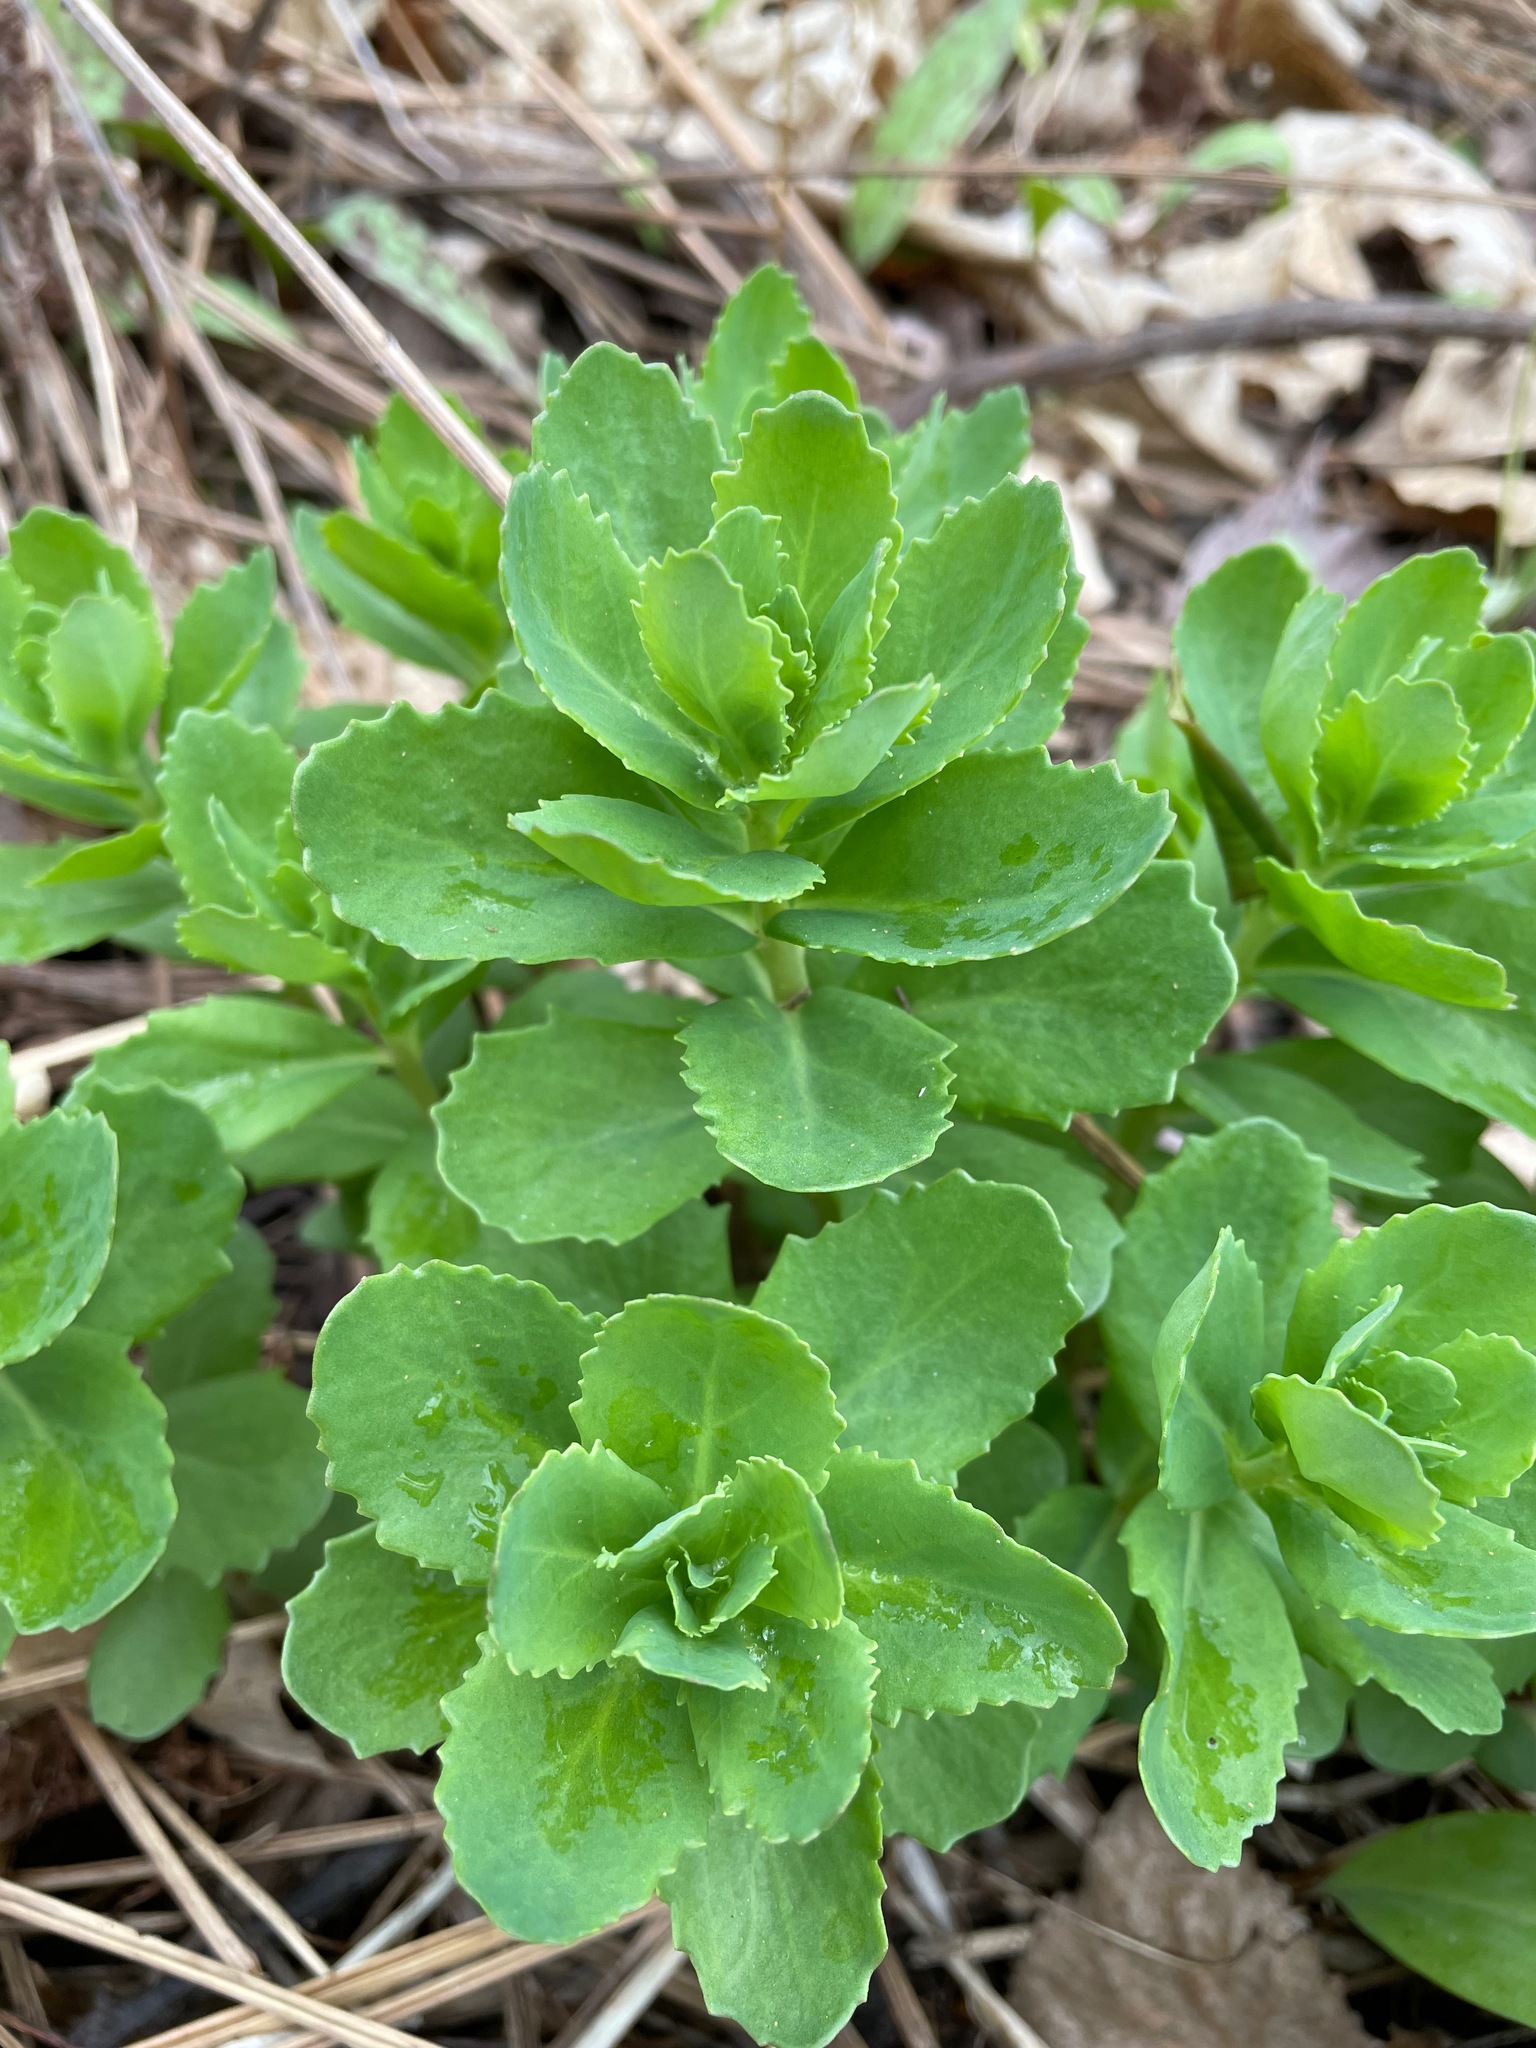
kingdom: Plantae
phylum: Tracheophyta
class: Magnoliopsida
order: Saxifragales
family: Crassulaceae
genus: Hylotelephium
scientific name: Hylotelephium telephium
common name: Live-forever
